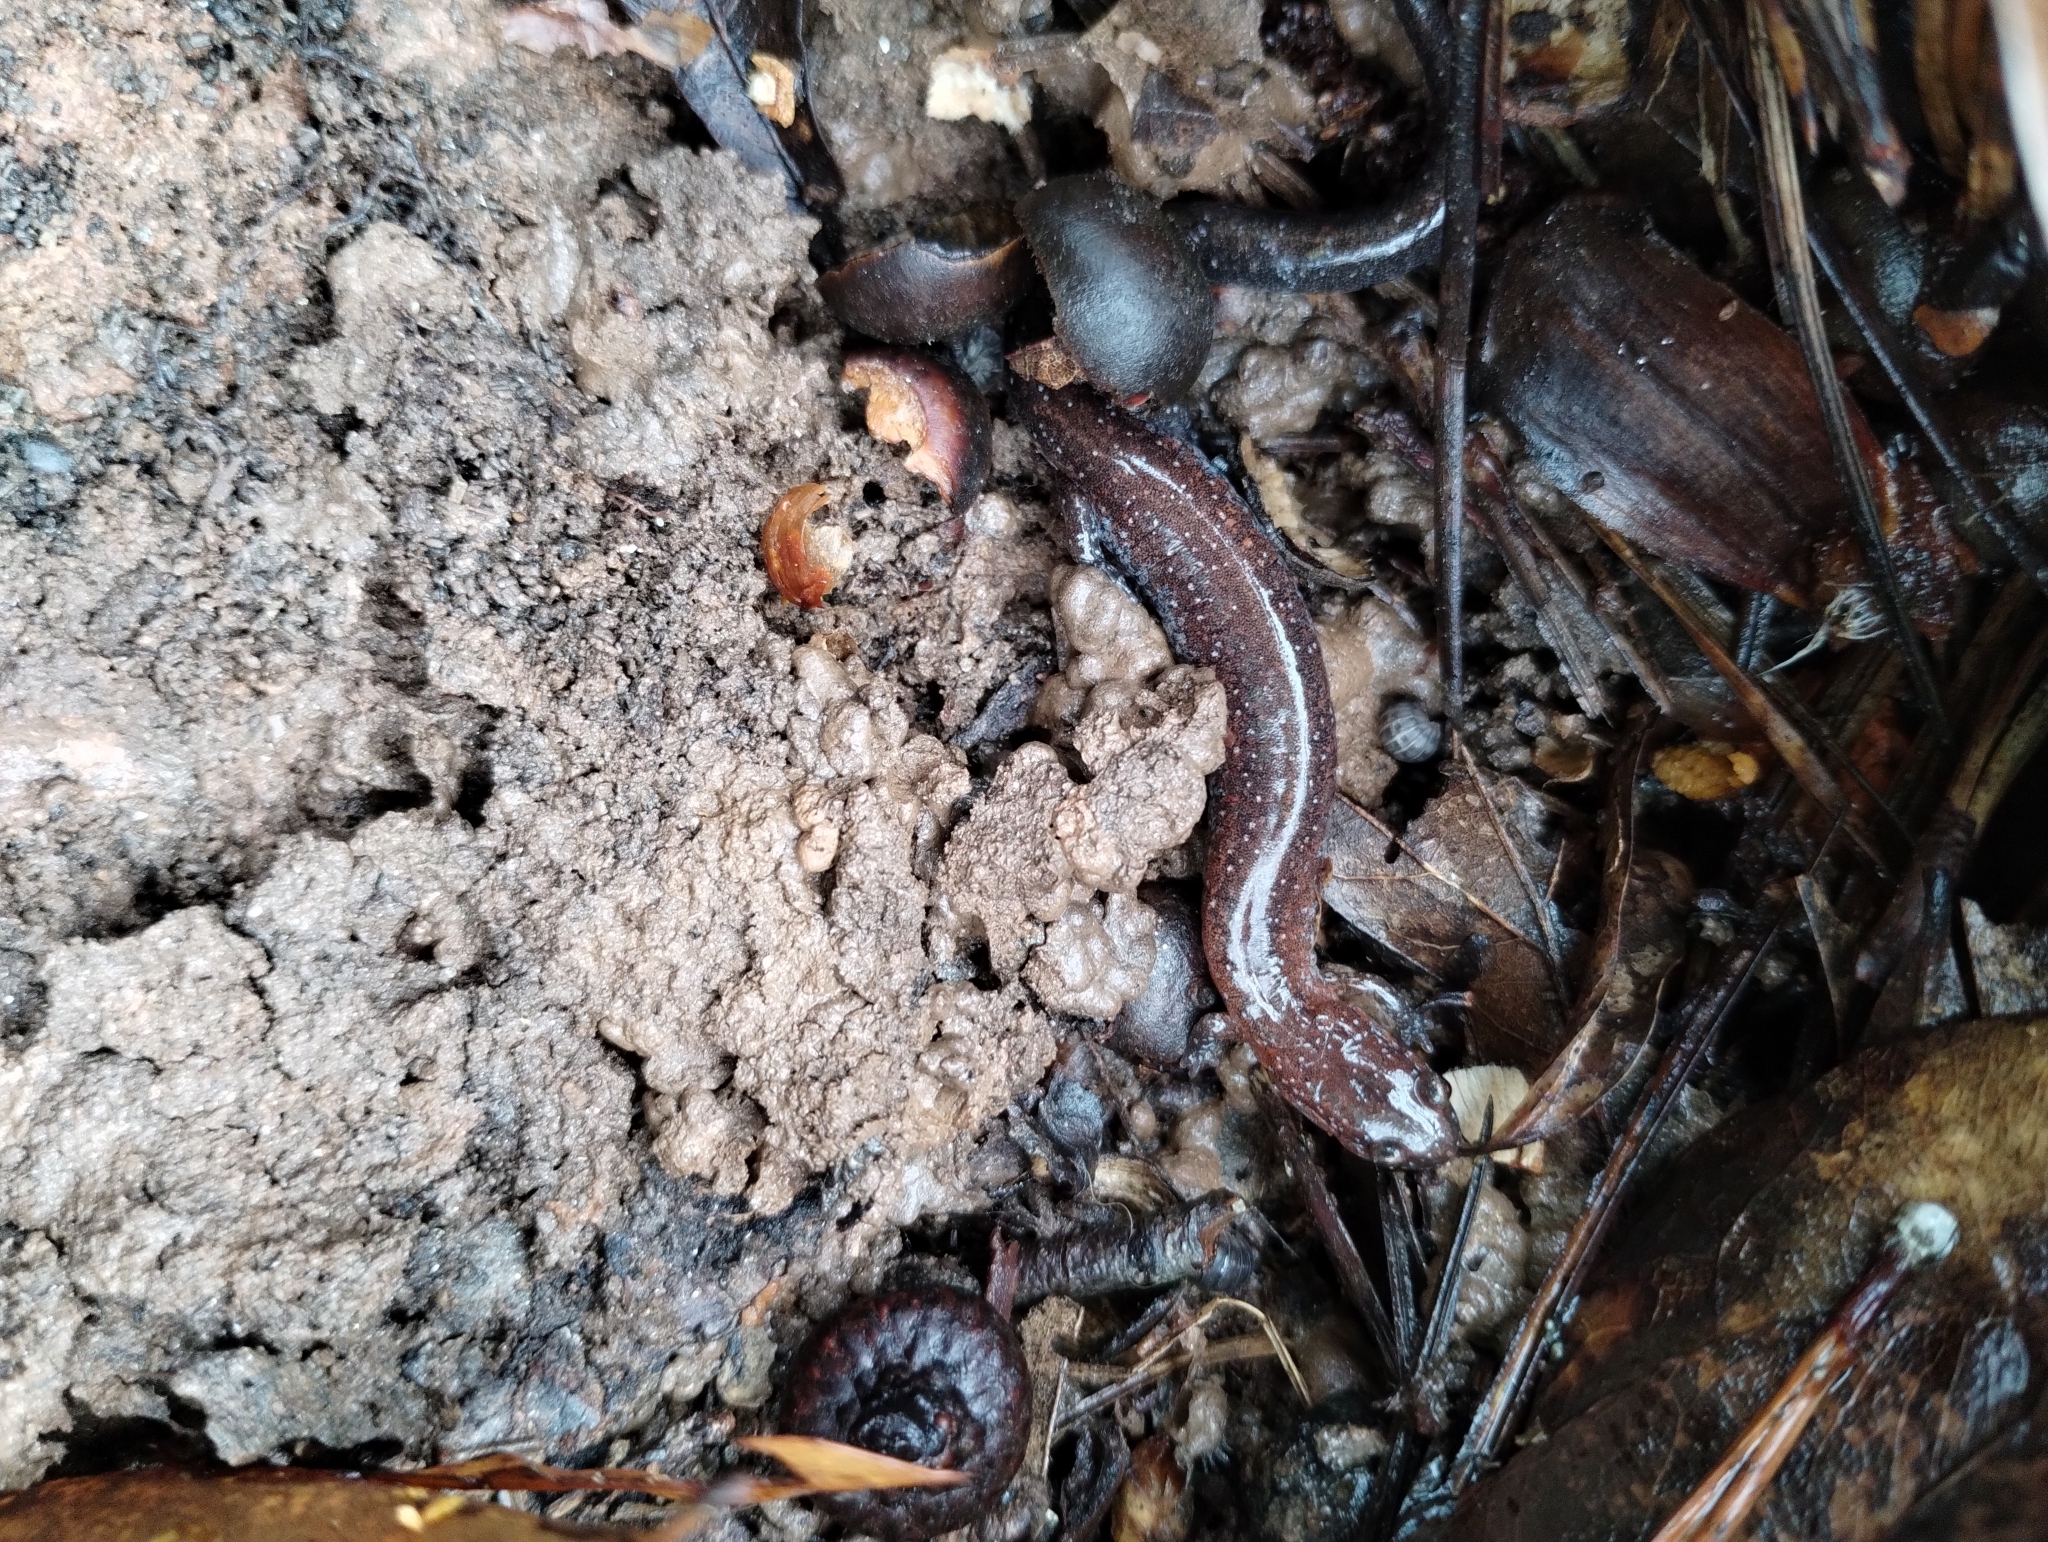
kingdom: Animalia
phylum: Chordata
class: Amphibia
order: Caudata
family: Plethodontidae
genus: Plethodon
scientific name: Plethodon serratus
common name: Southern red-backed salamander
